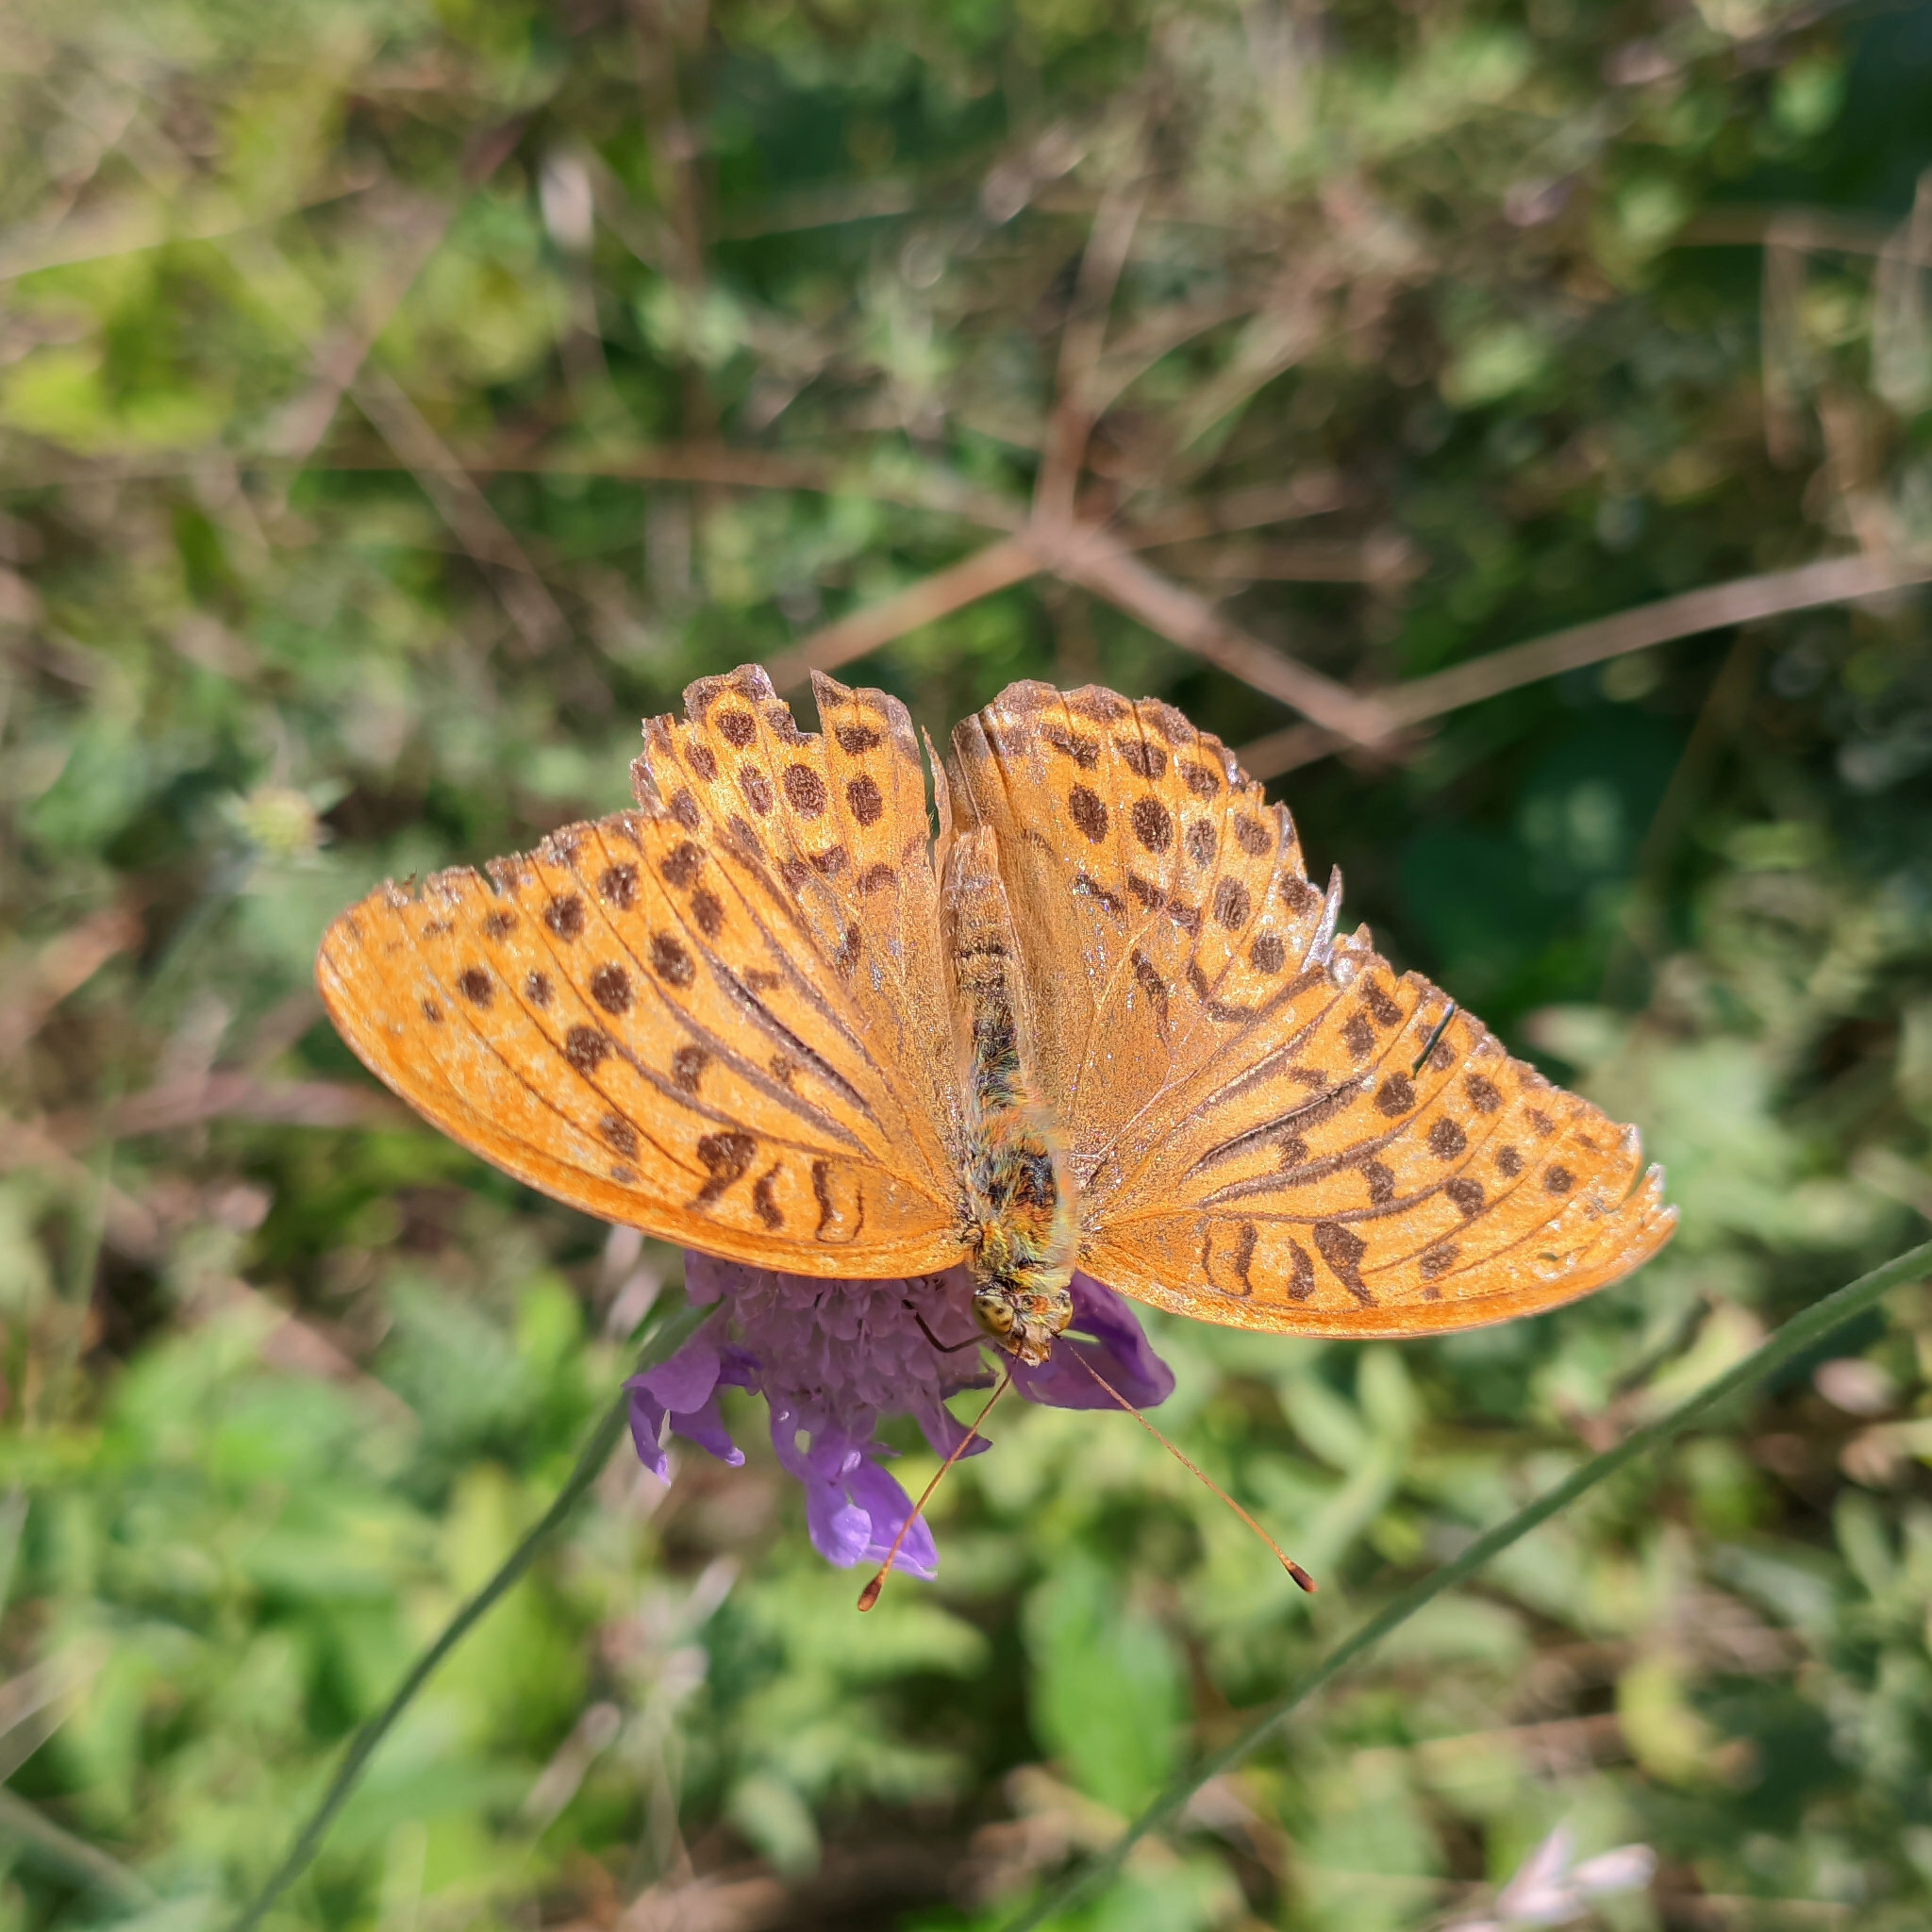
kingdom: Animalia
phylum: Arthropoda
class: Insecta
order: Lepidoptera
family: Nymphalidae
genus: Argynnis
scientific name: Argynnis paphia
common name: Silver-washed fritillary
